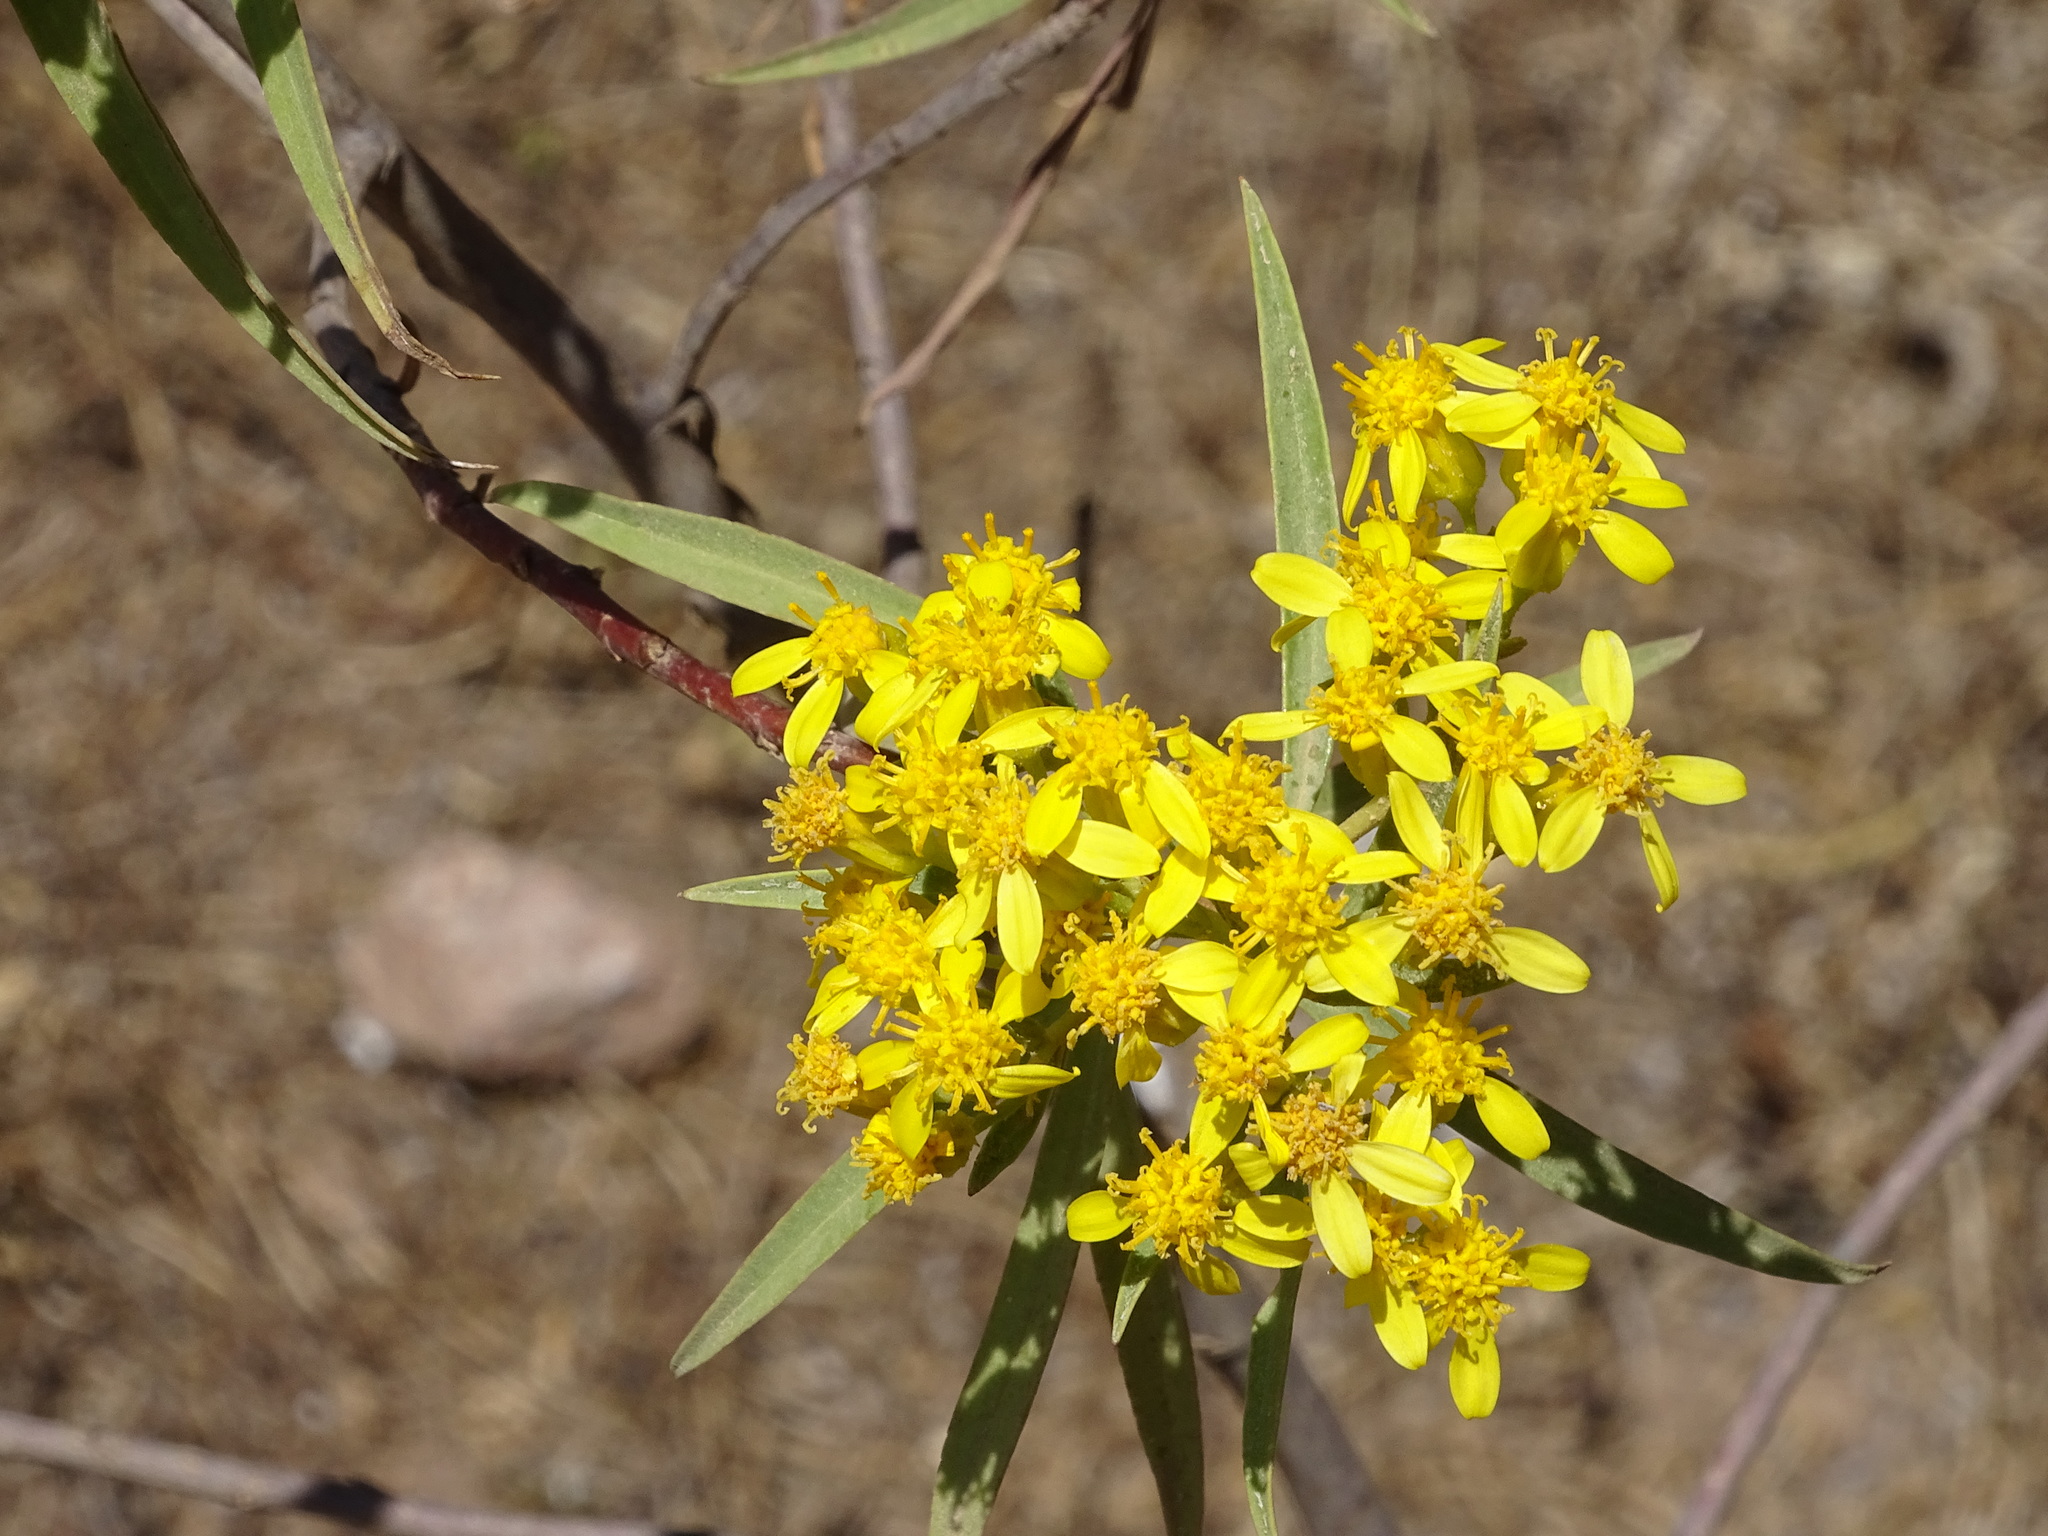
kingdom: Plantae
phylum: Tracheophyta
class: Magnoliopsida
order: Asterales
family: Asteraceae
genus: Barkleyanthus
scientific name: Barkleyanthus salicifolius
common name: Willow ragwort
